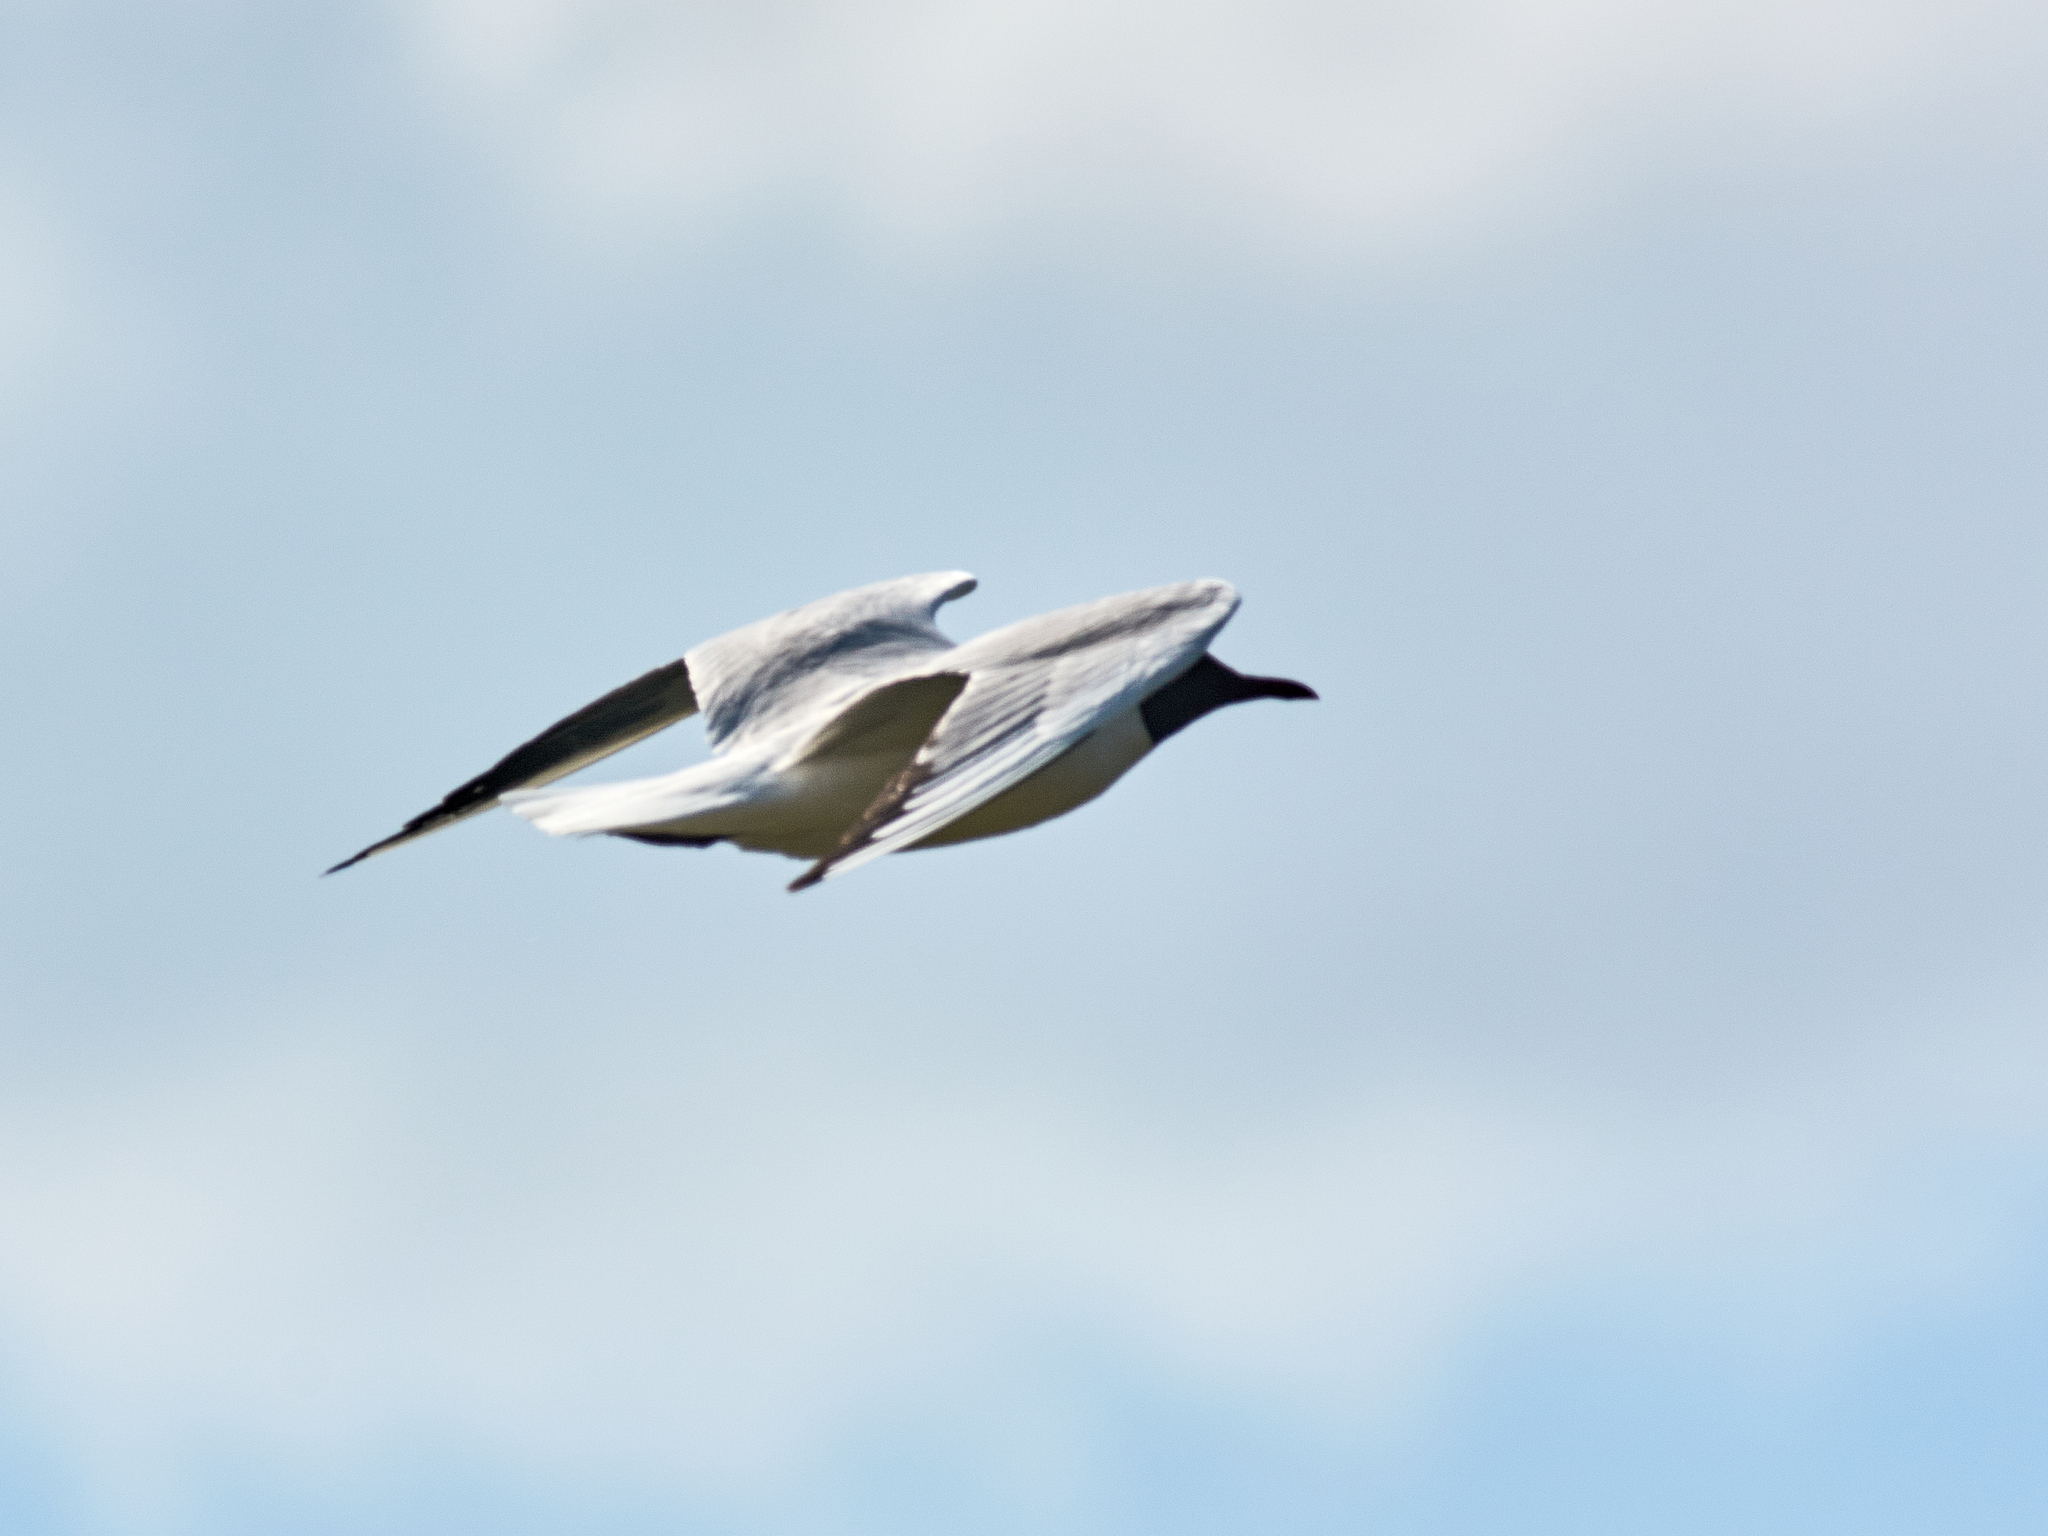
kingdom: Animalia
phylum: Chordata
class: Aves
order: Charadriiformes
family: Laridae
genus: Chroicocephalus
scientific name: Chroicocephalus ridibundus
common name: Black-headed gull
